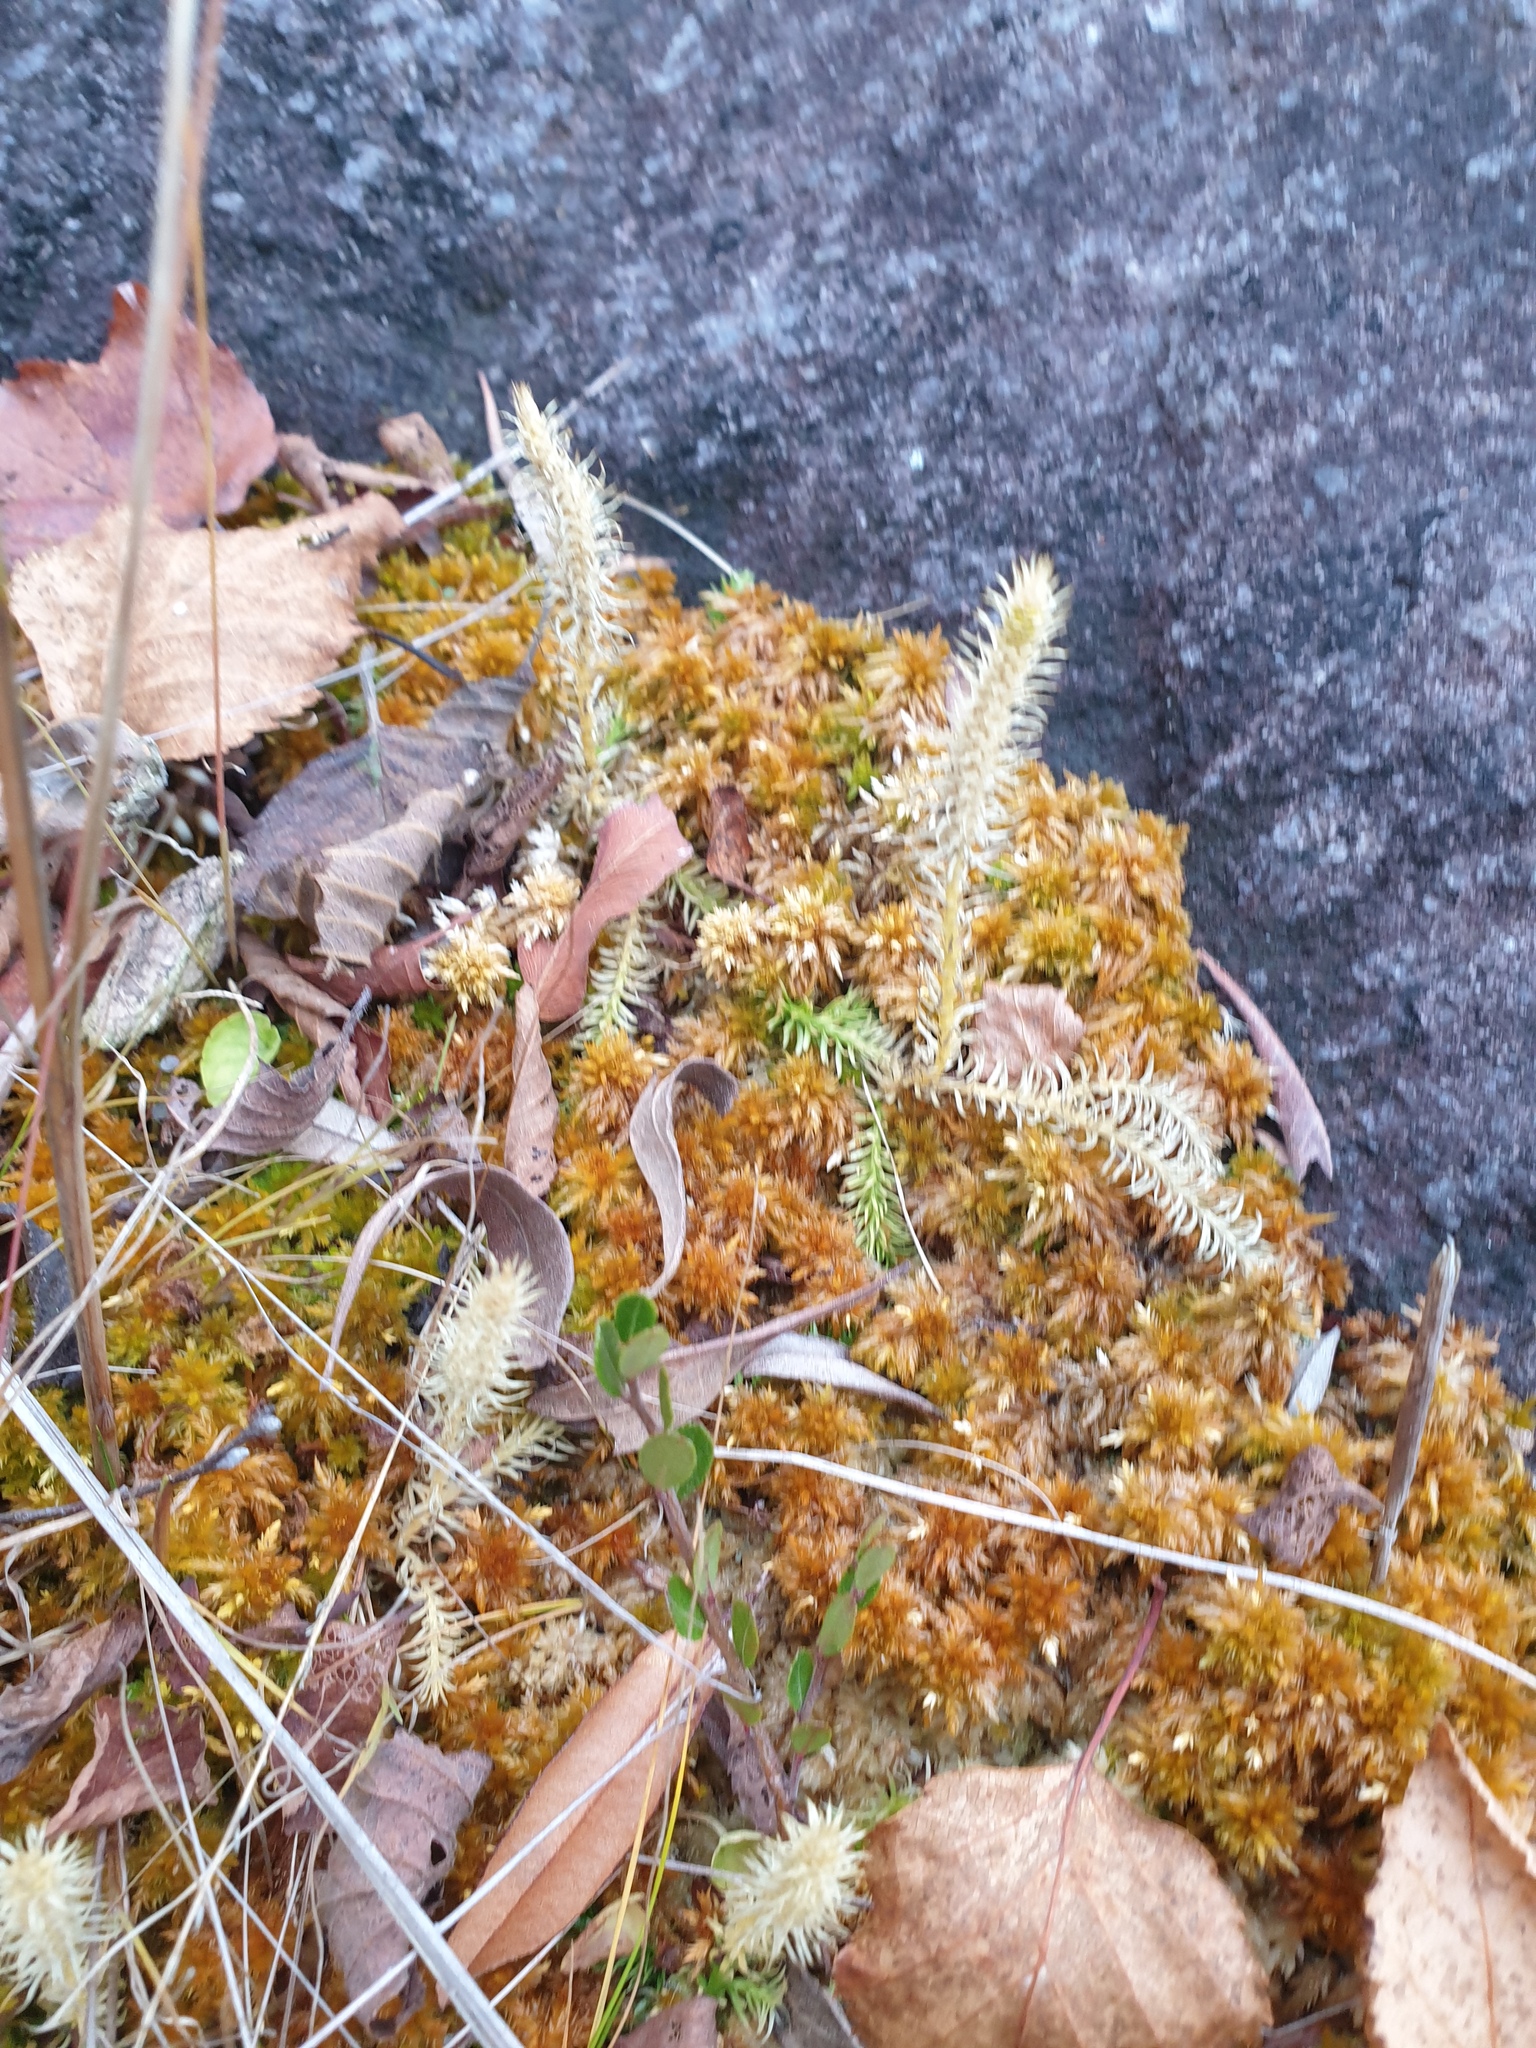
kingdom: Plantae
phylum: Tracheophyta
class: Lycopodiopsida
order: Lycopodiales
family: Lycopodiaceae
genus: Lycopodiella
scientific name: Lycopodiella inundata
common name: Marsh clubmoss
